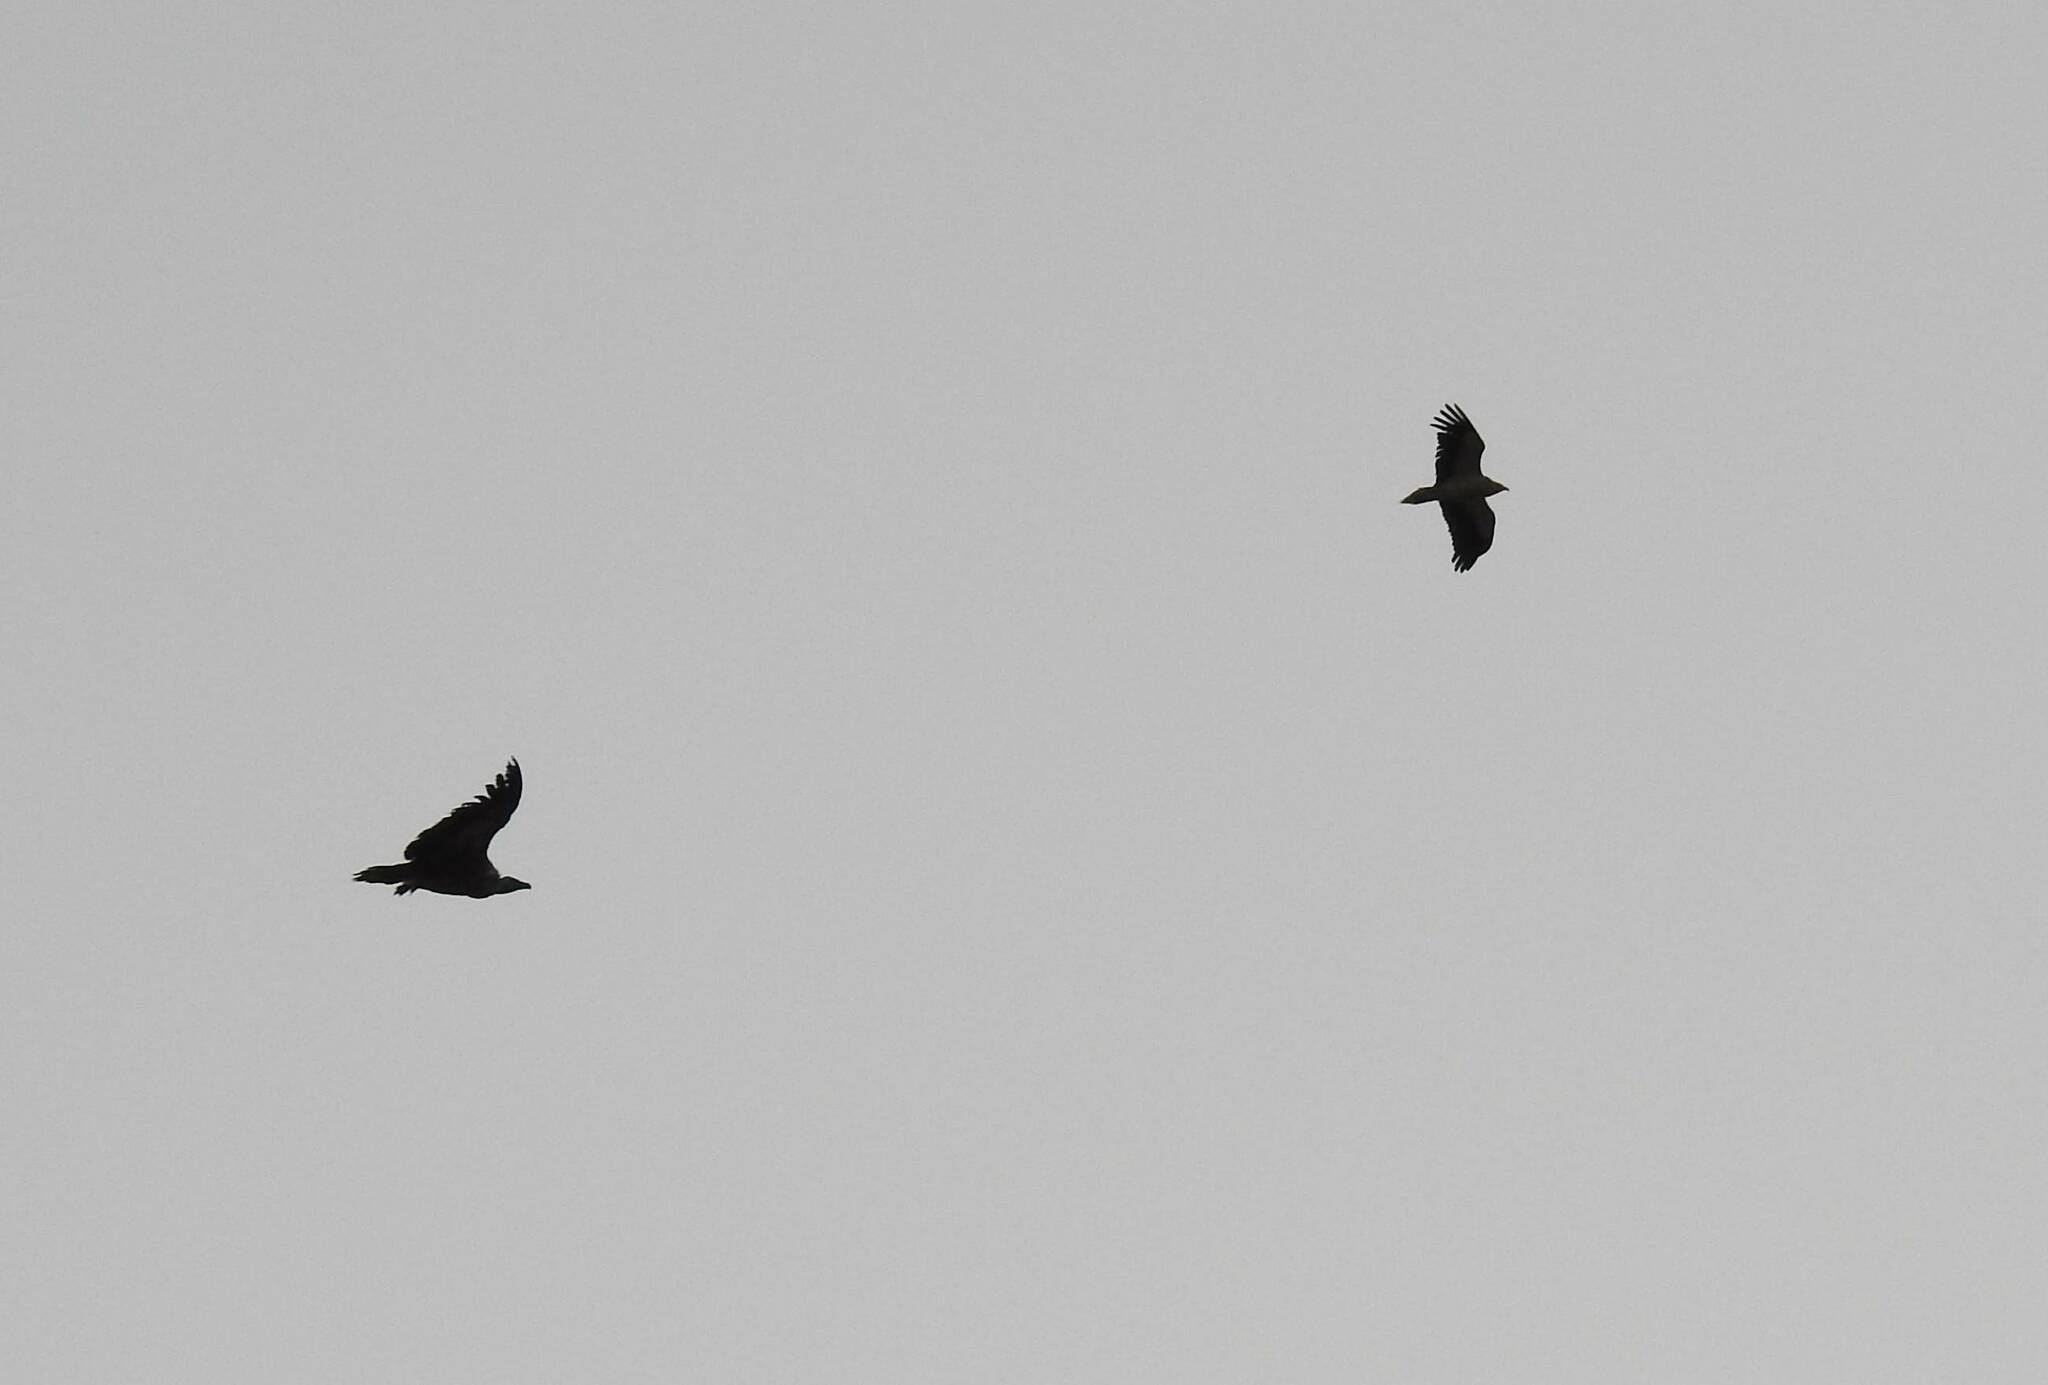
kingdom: Animalia
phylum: Chordata
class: Aves
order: Accipitriformes
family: Accipitridae
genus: Gyps
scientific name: Gyps fulvus
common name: Griffon vulture
